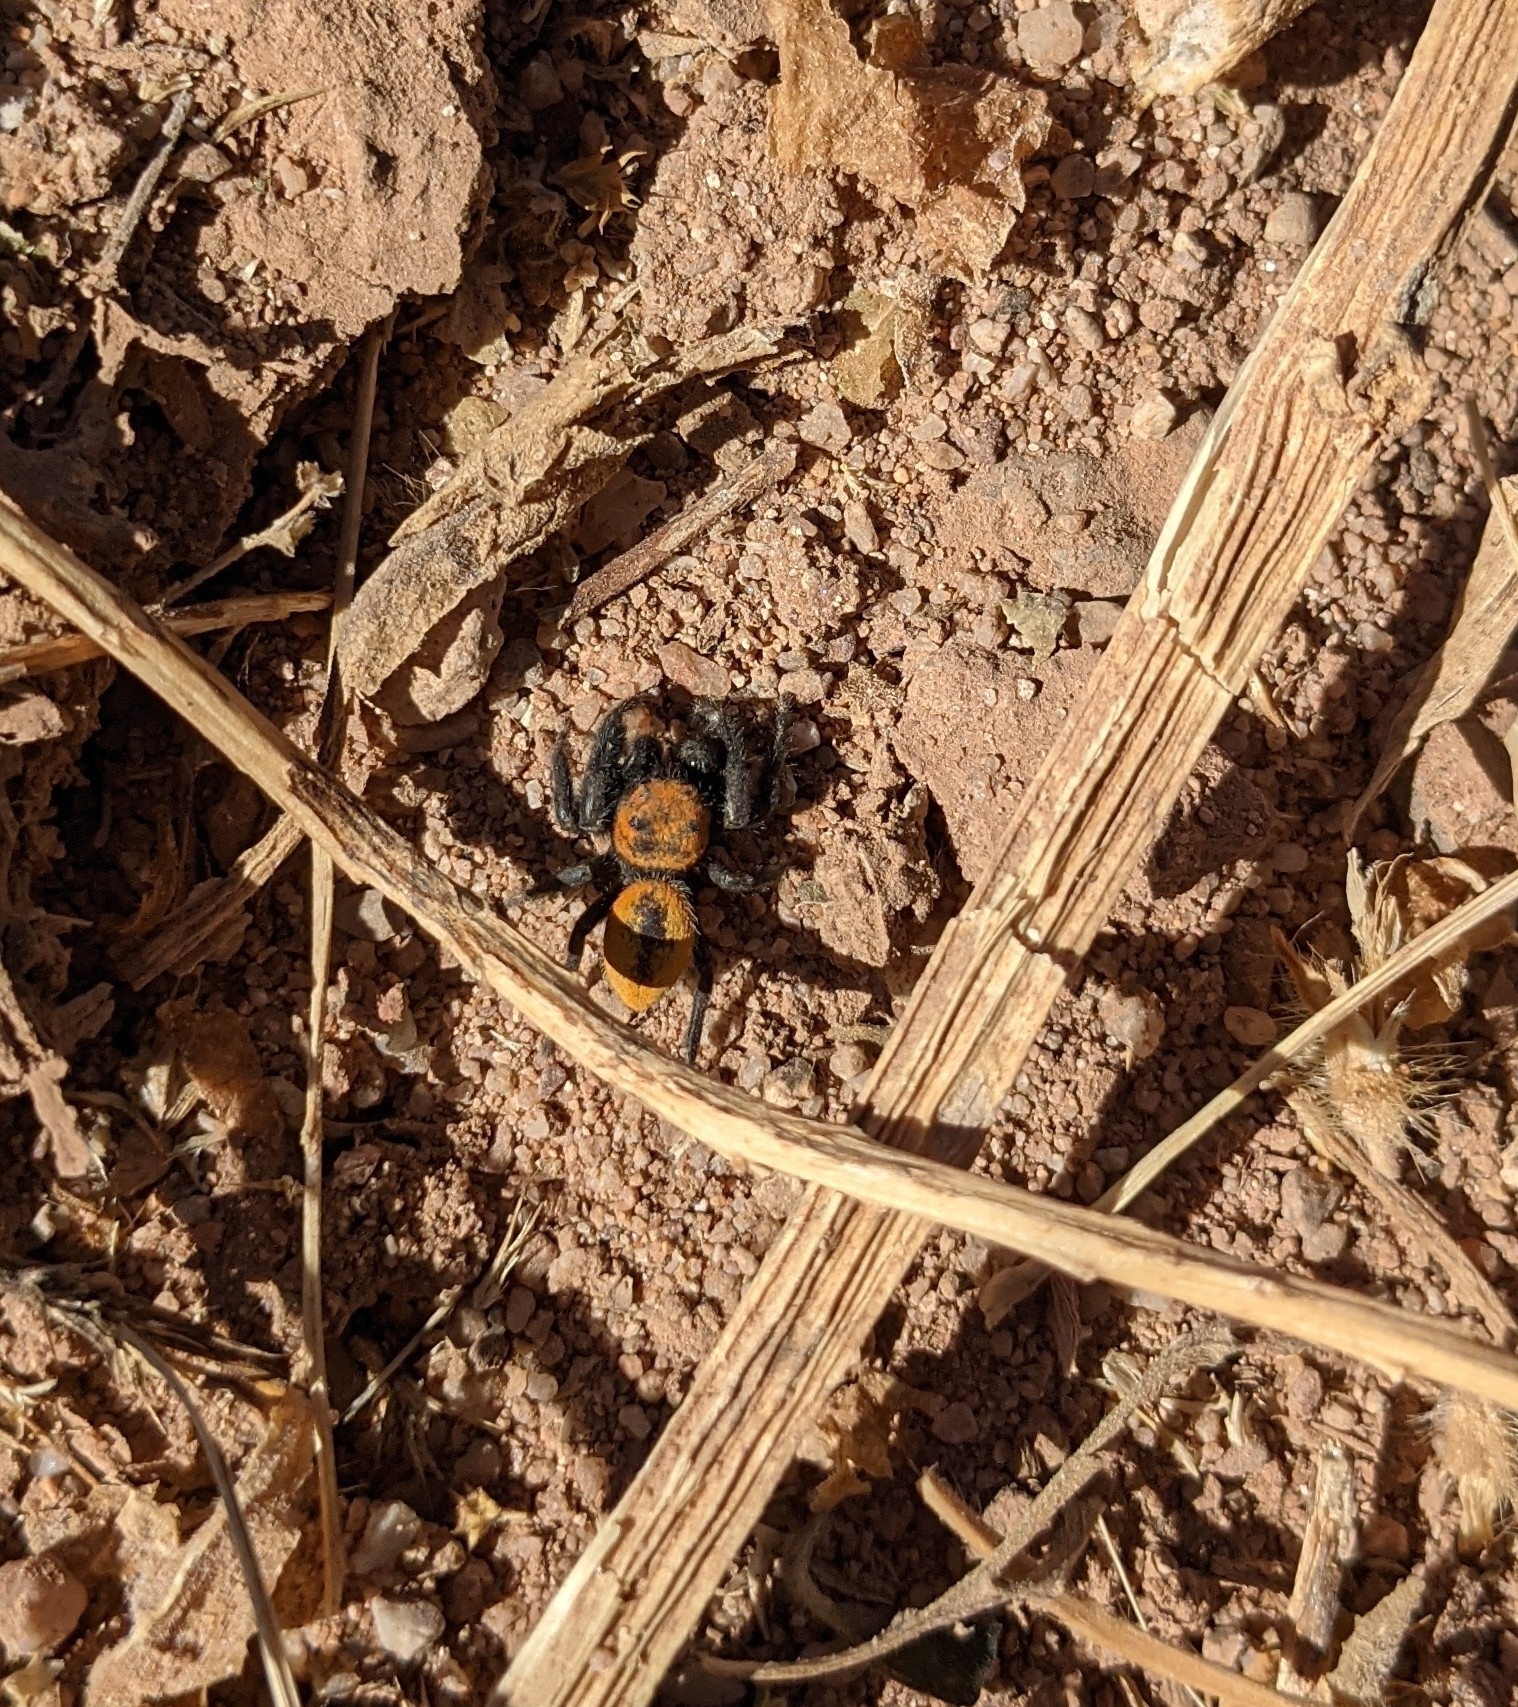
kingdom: Animalia
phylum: Arthropoda
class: Arachnida
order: Araneae
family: Salticidae
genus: Phidippus
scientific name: Phidippus apacheanus
